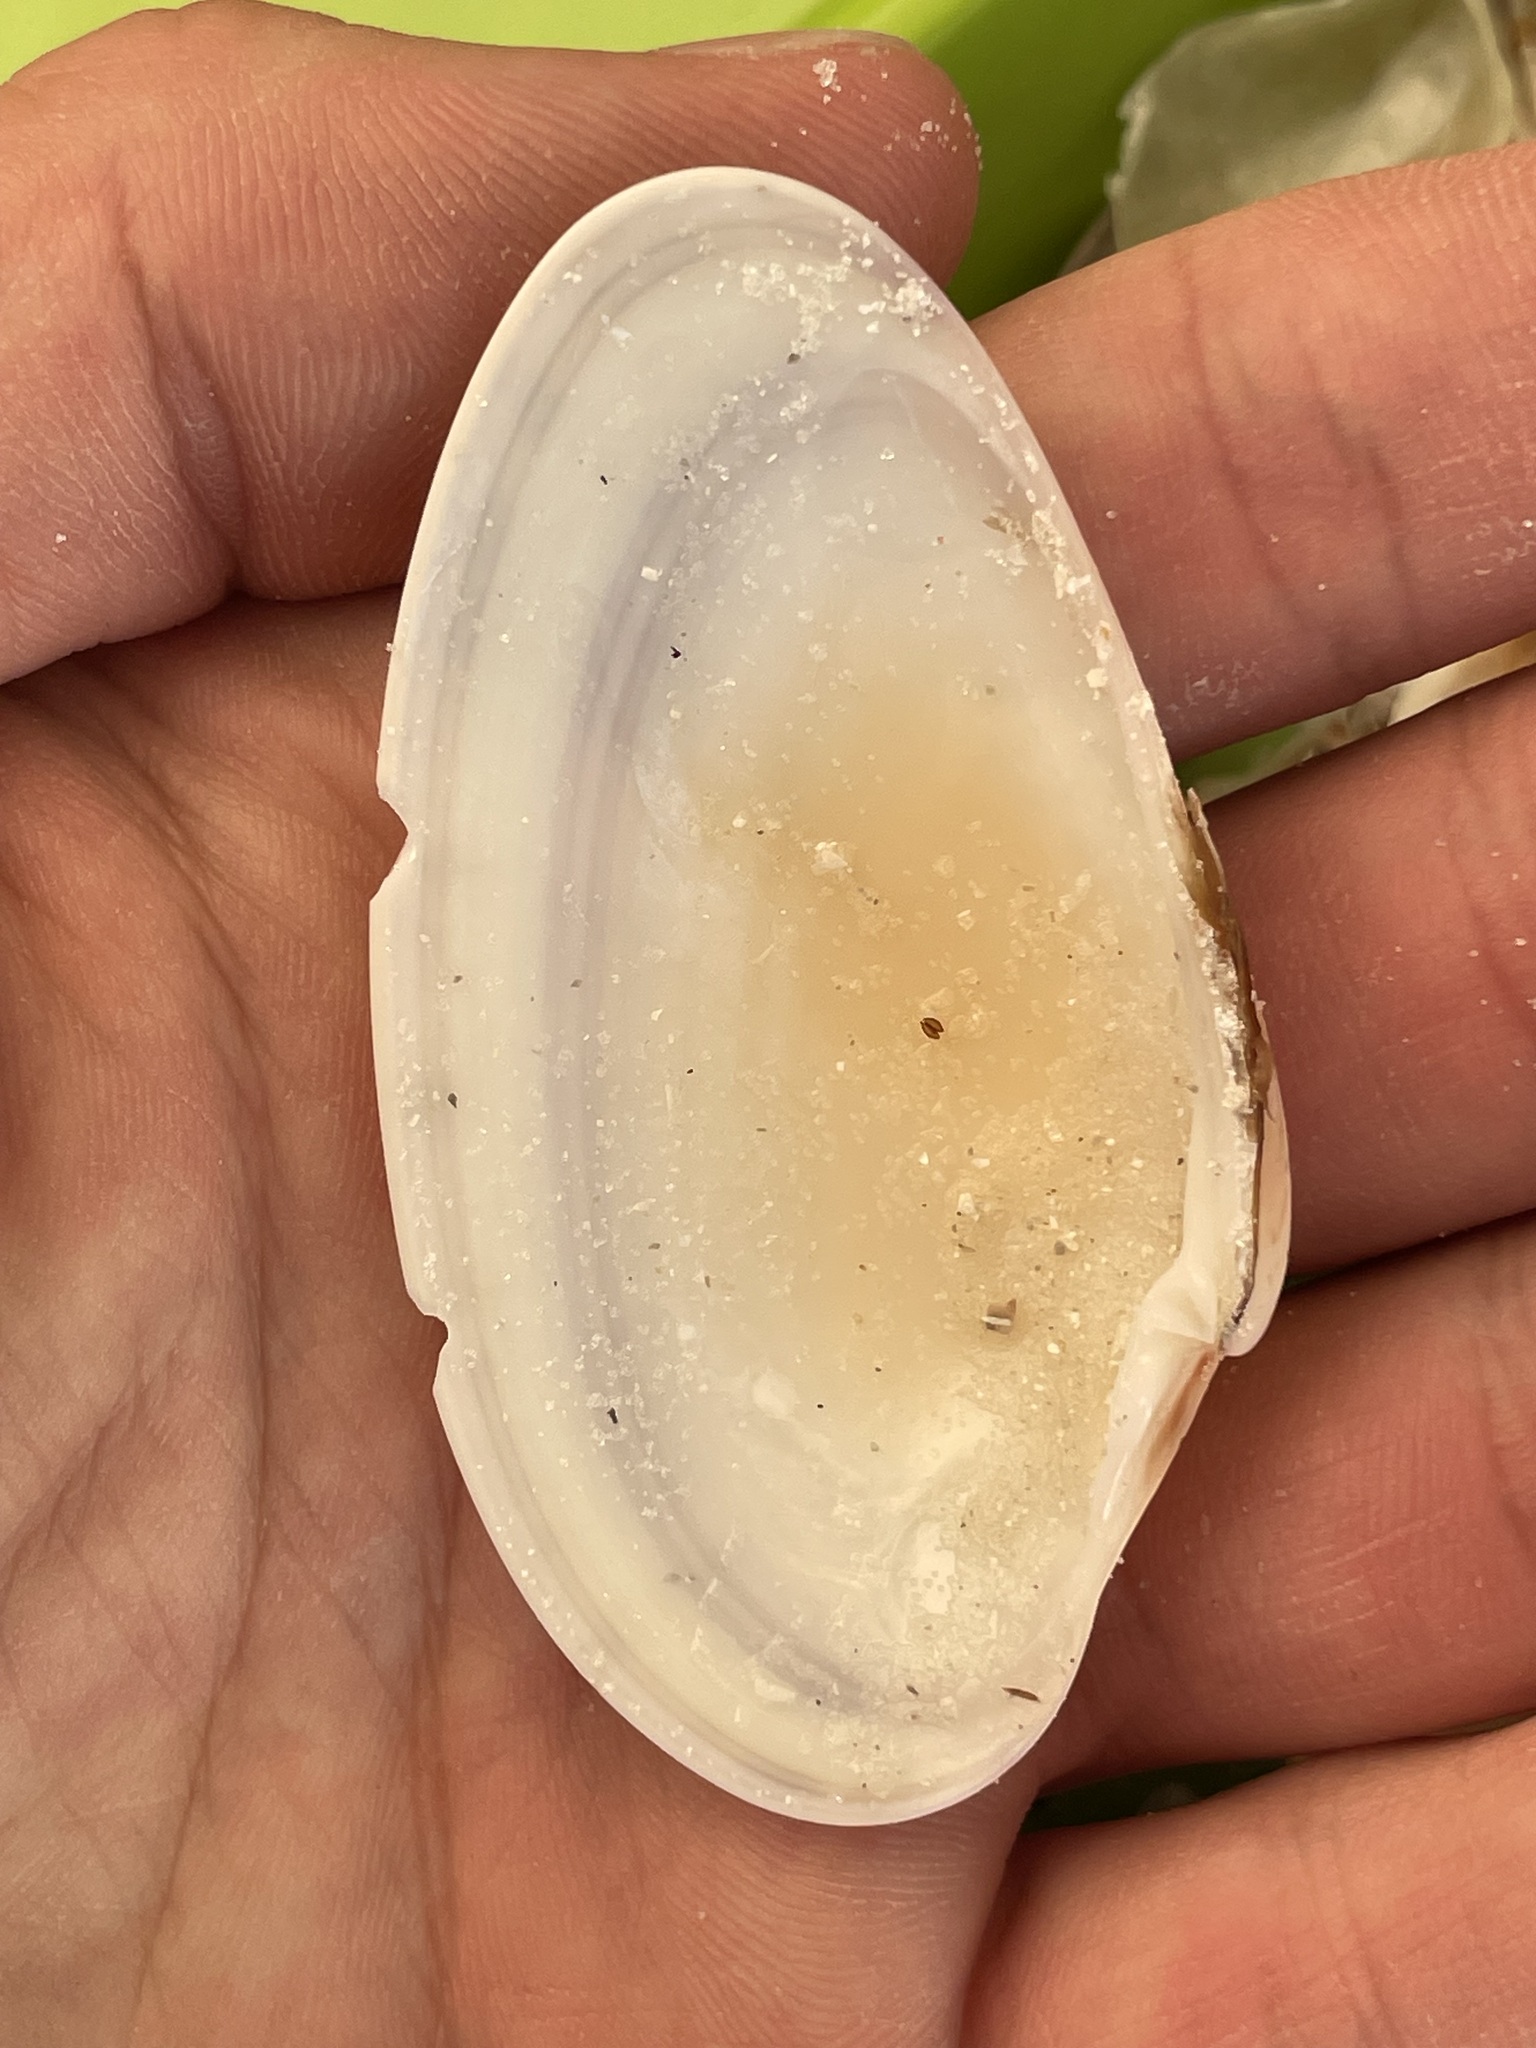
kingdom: Animalia
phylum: Mollusca
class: Bivalvia
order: Venerida
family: Veneridae
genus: Macrocallista
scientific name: Macrocallista nimbosa
